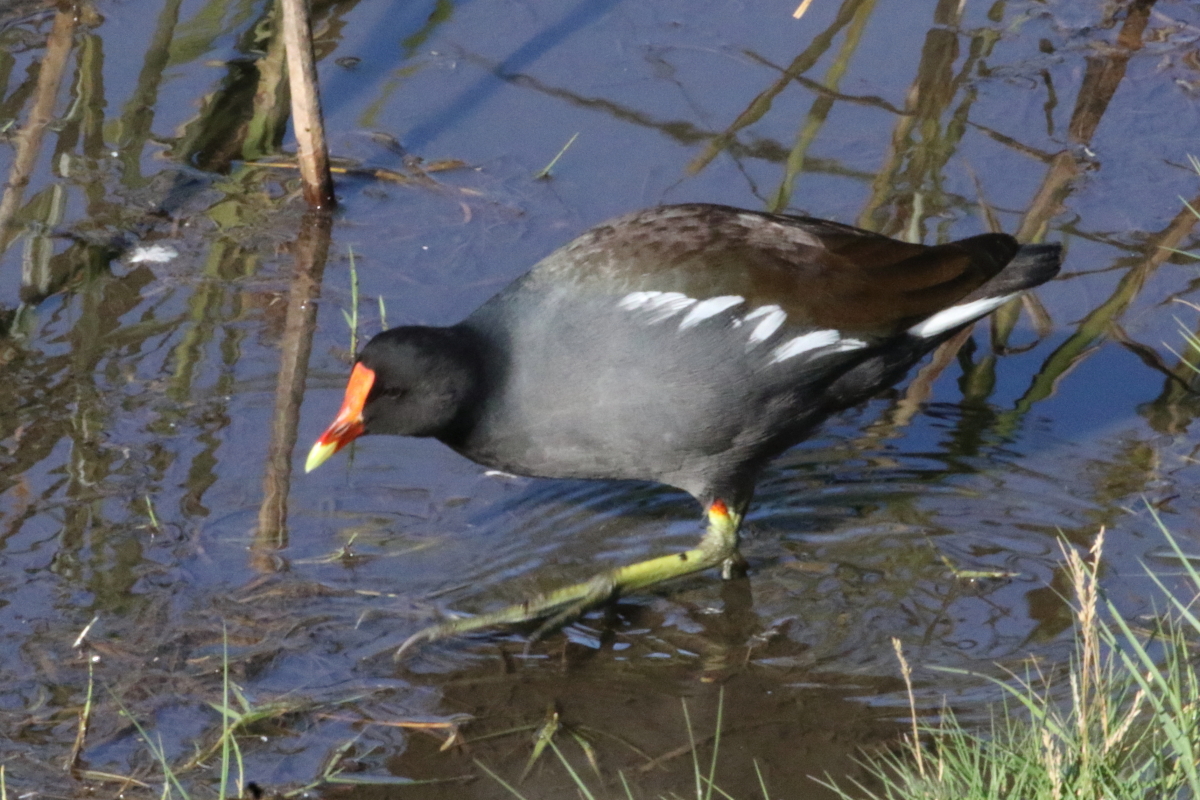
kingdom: Animalia
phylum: Chordata
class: Aves
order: Gruiformes
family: Rallidae
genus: Gallinula
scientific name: Gallinula chloropus
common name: Common moorhen
